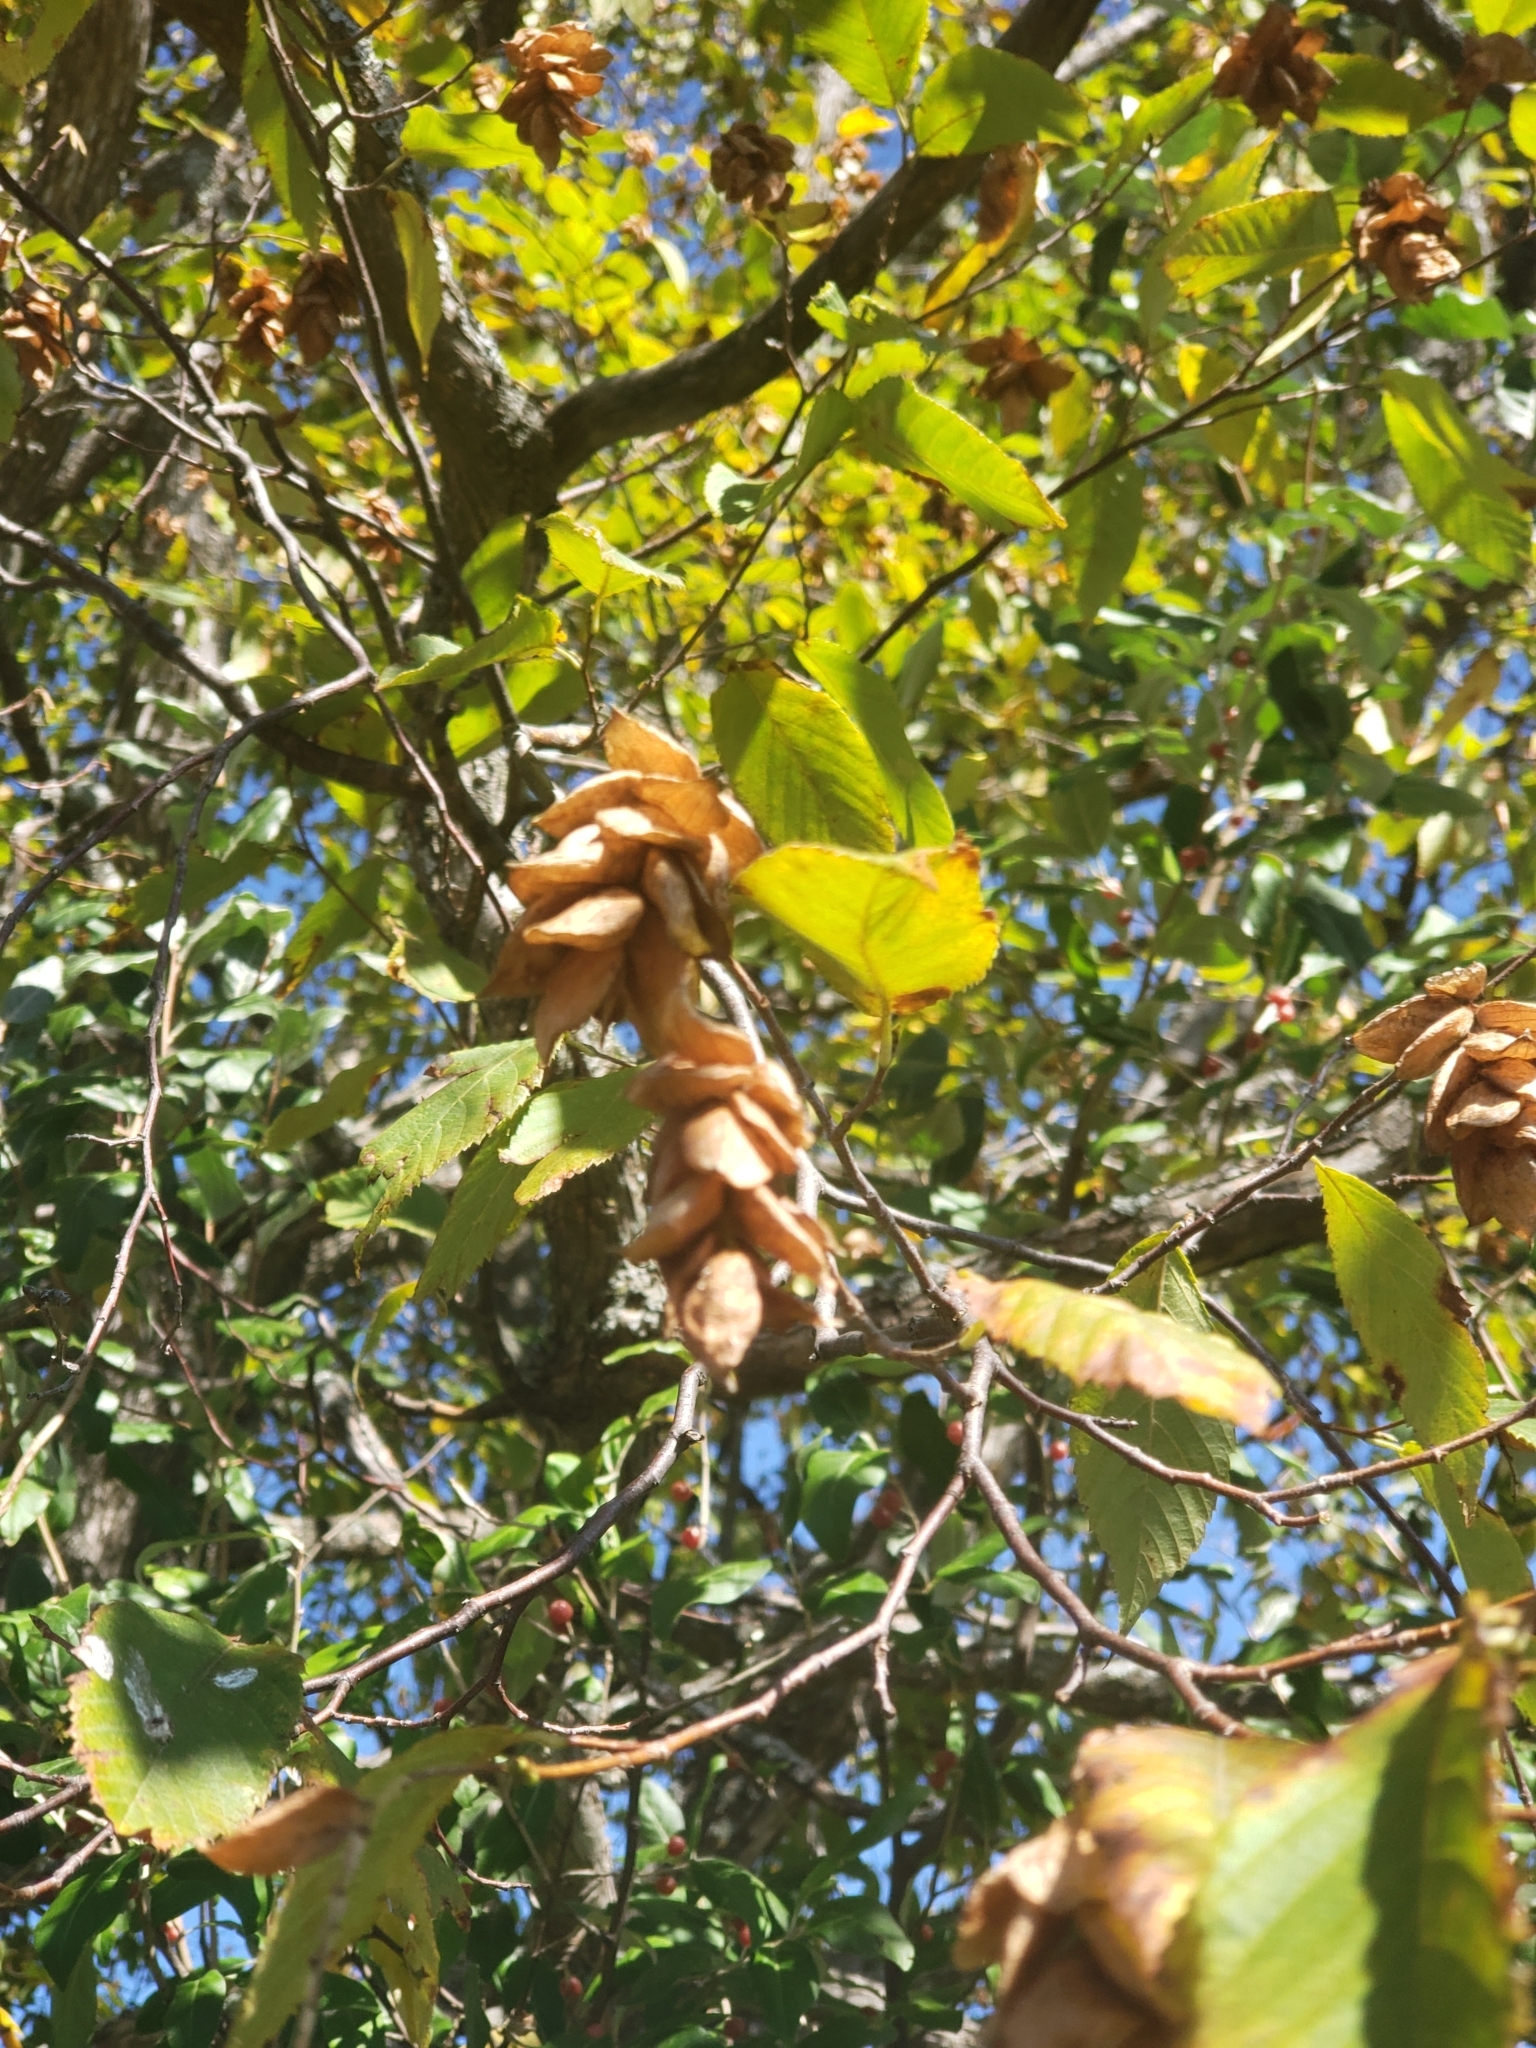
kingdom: Plantae
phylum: Tracheophyta
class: Magnoliopsida
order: Fagales
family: Betulaceae
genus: Ostrya
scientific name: Ostrya virginiana
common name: Ironwood
